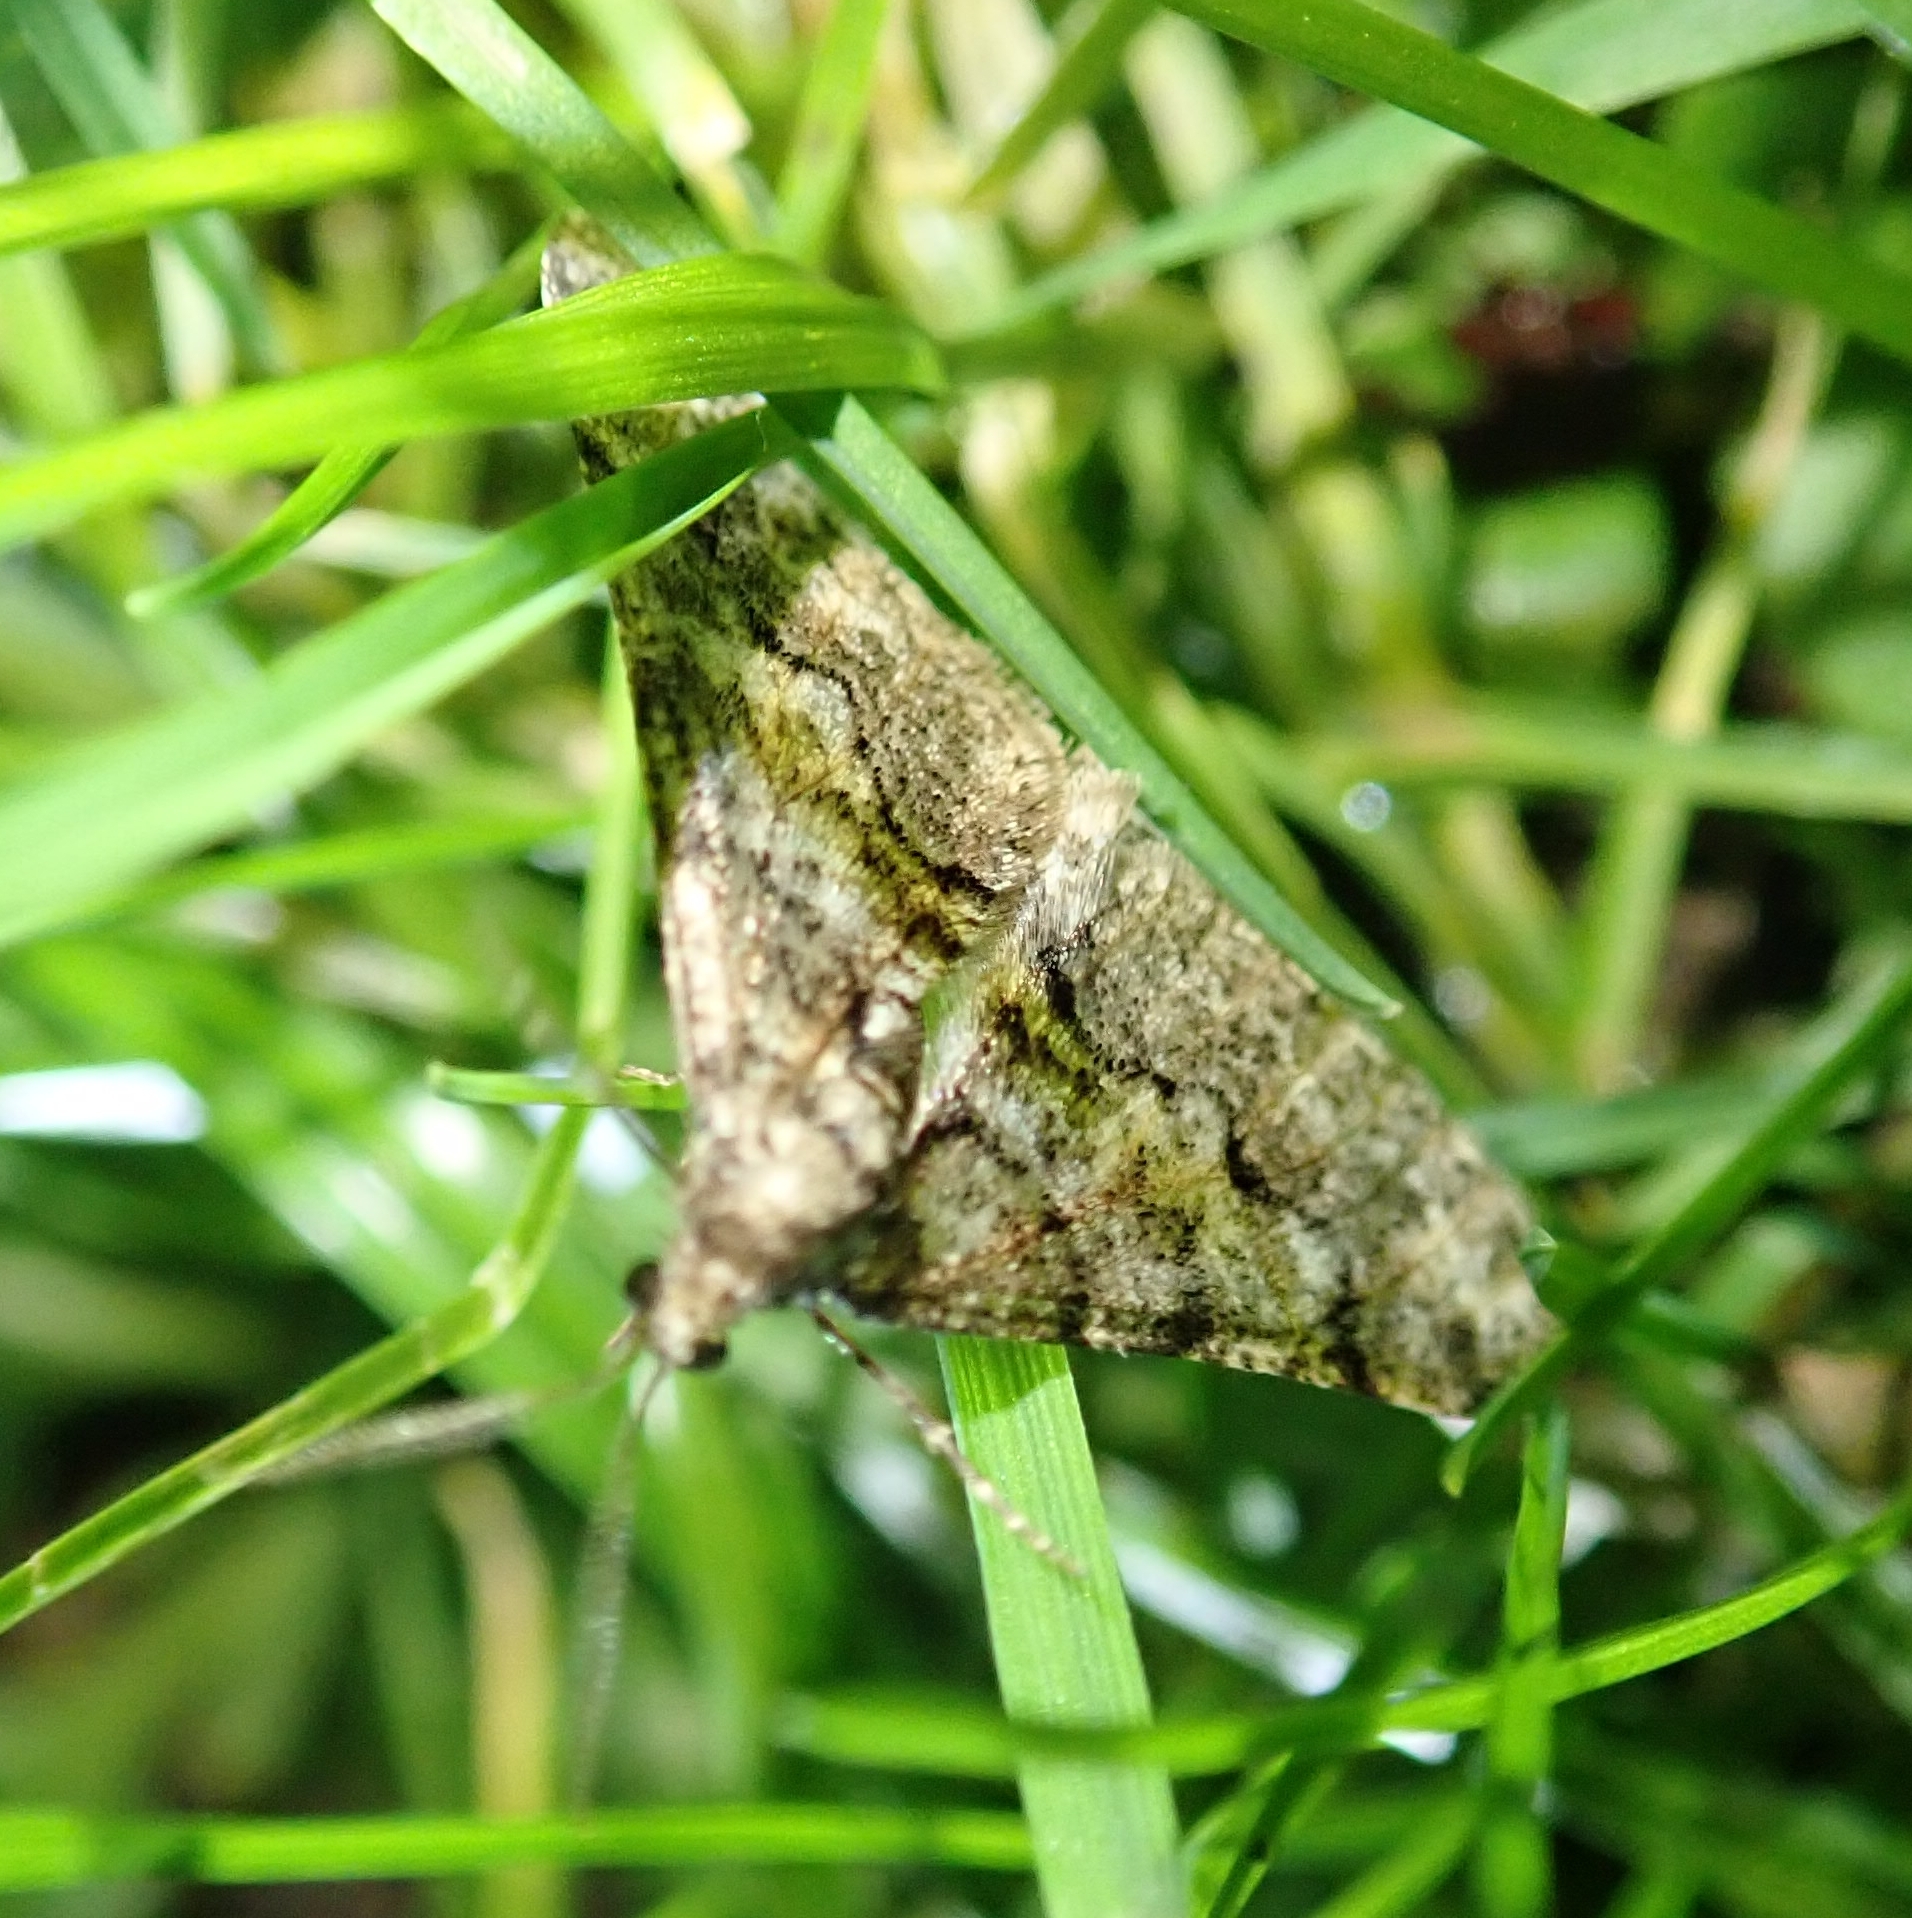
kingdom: Animalia
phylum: Arthropoda
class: Insecta
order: Lepidoptera
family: Geometridae
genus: Agriopis
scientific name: Agriopis leucophaearia
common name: Spring usher
